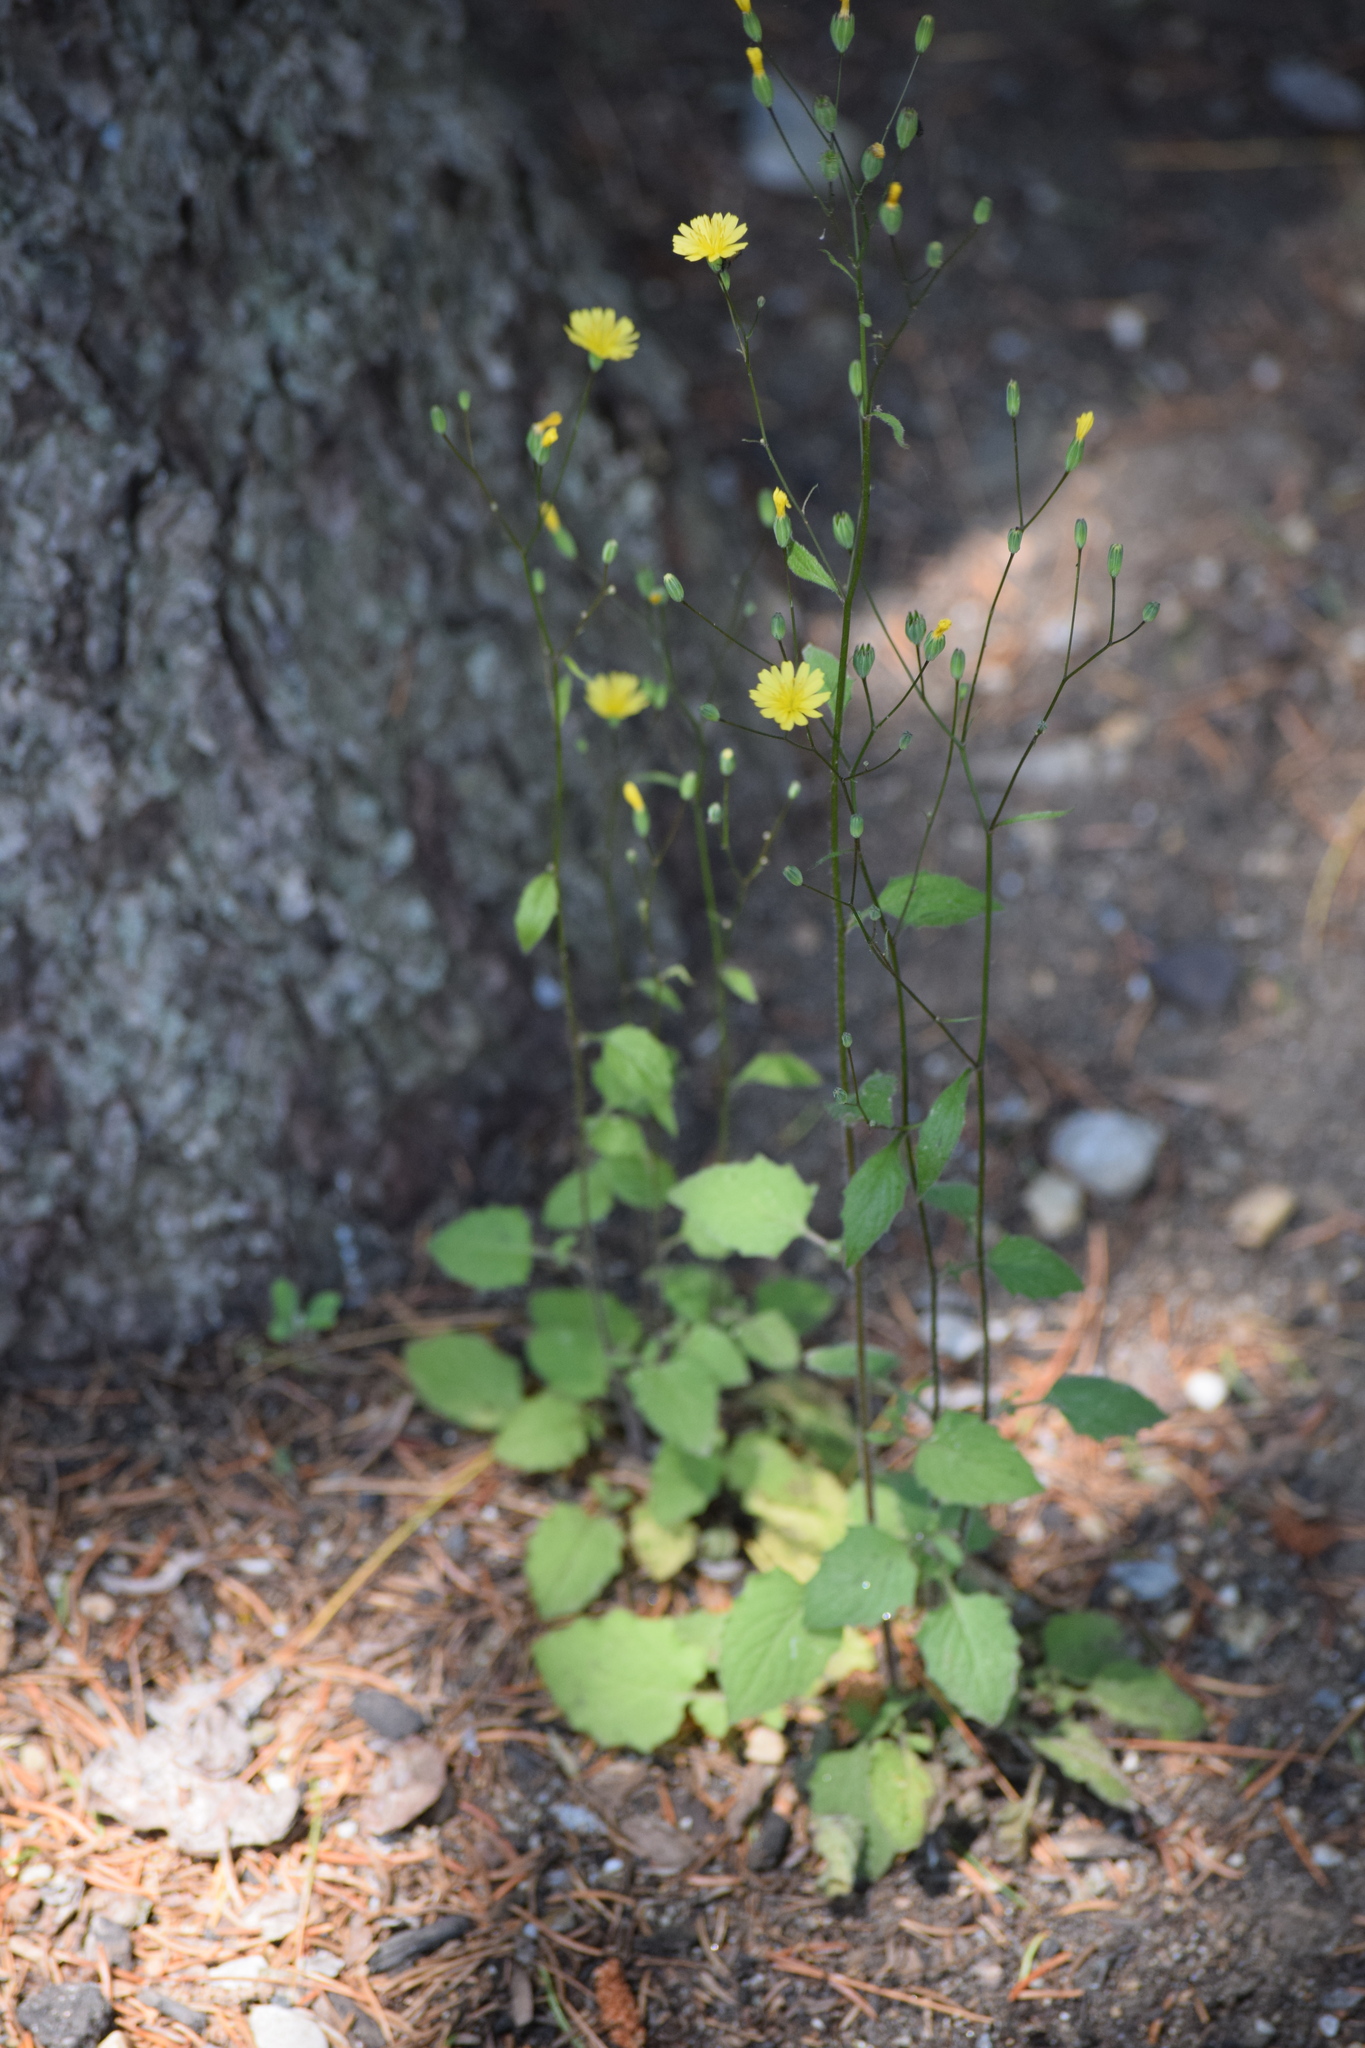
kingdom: Plantae
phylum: Tracheophyta
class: Magnoliopsida
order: Asterales
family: Asteraceae
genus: Lapsana
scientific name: Lapsana communis
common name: Nipplewort
